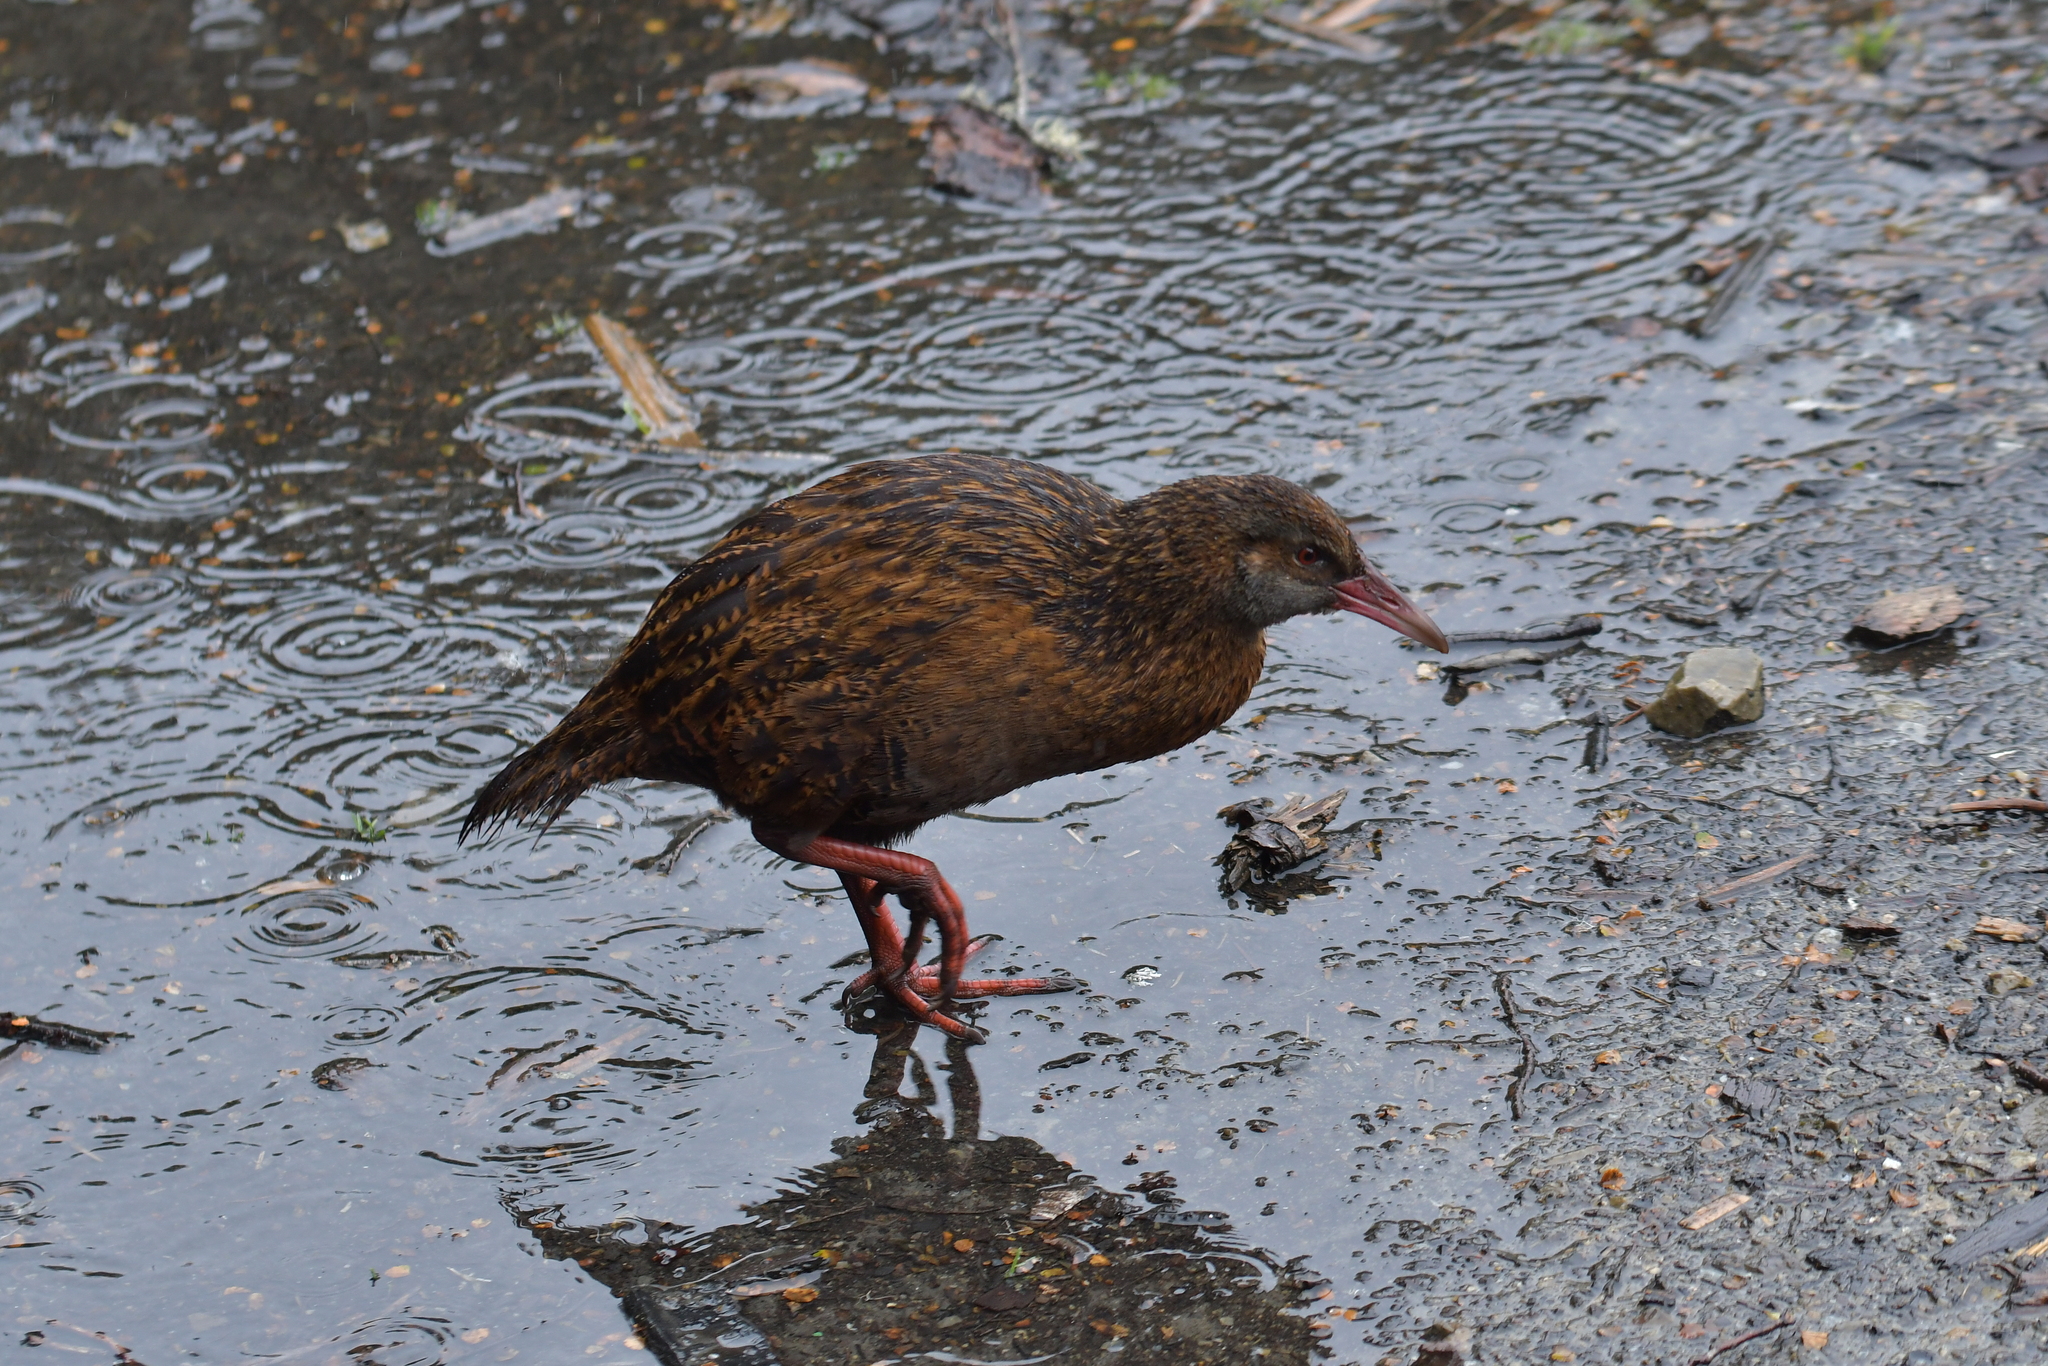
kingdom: Animalia
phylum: Chordata
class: Aves
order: Gruiformes
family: Rallidae
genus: Gallirallus
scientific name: Gallirallus australis
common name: Weka
